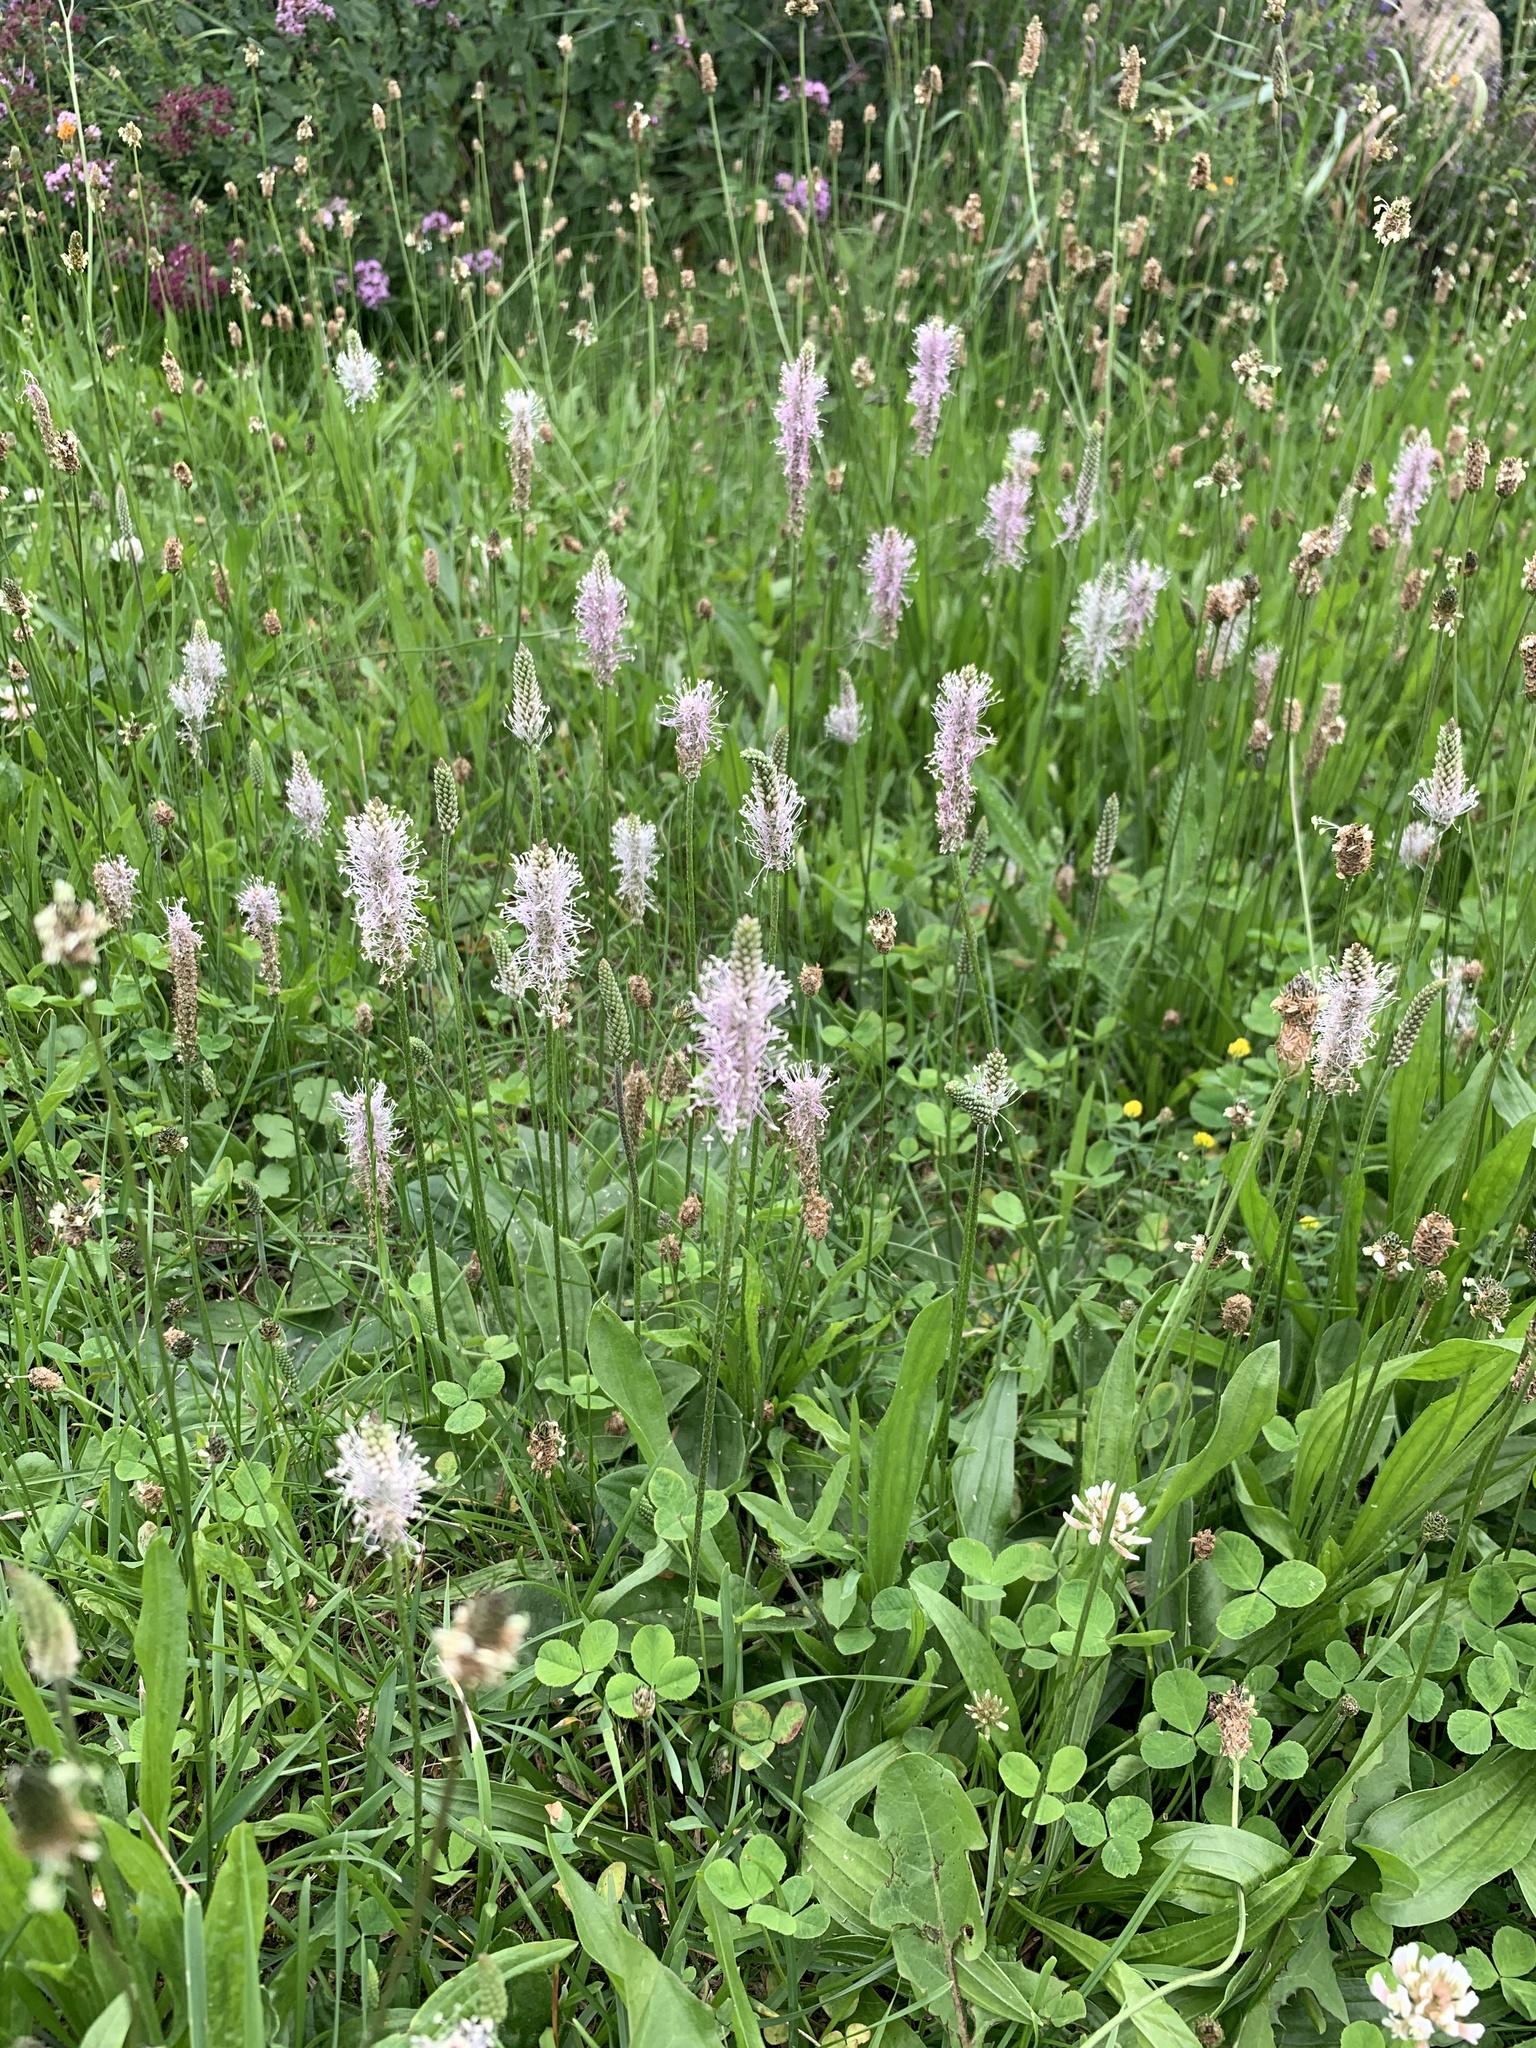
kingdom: Plantae
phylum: Tracheophyta
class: Magnoliopsida
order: Lamiales
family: Plantaginaceae
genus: Plantago
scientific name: Plantago media
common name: Hoary plantain
